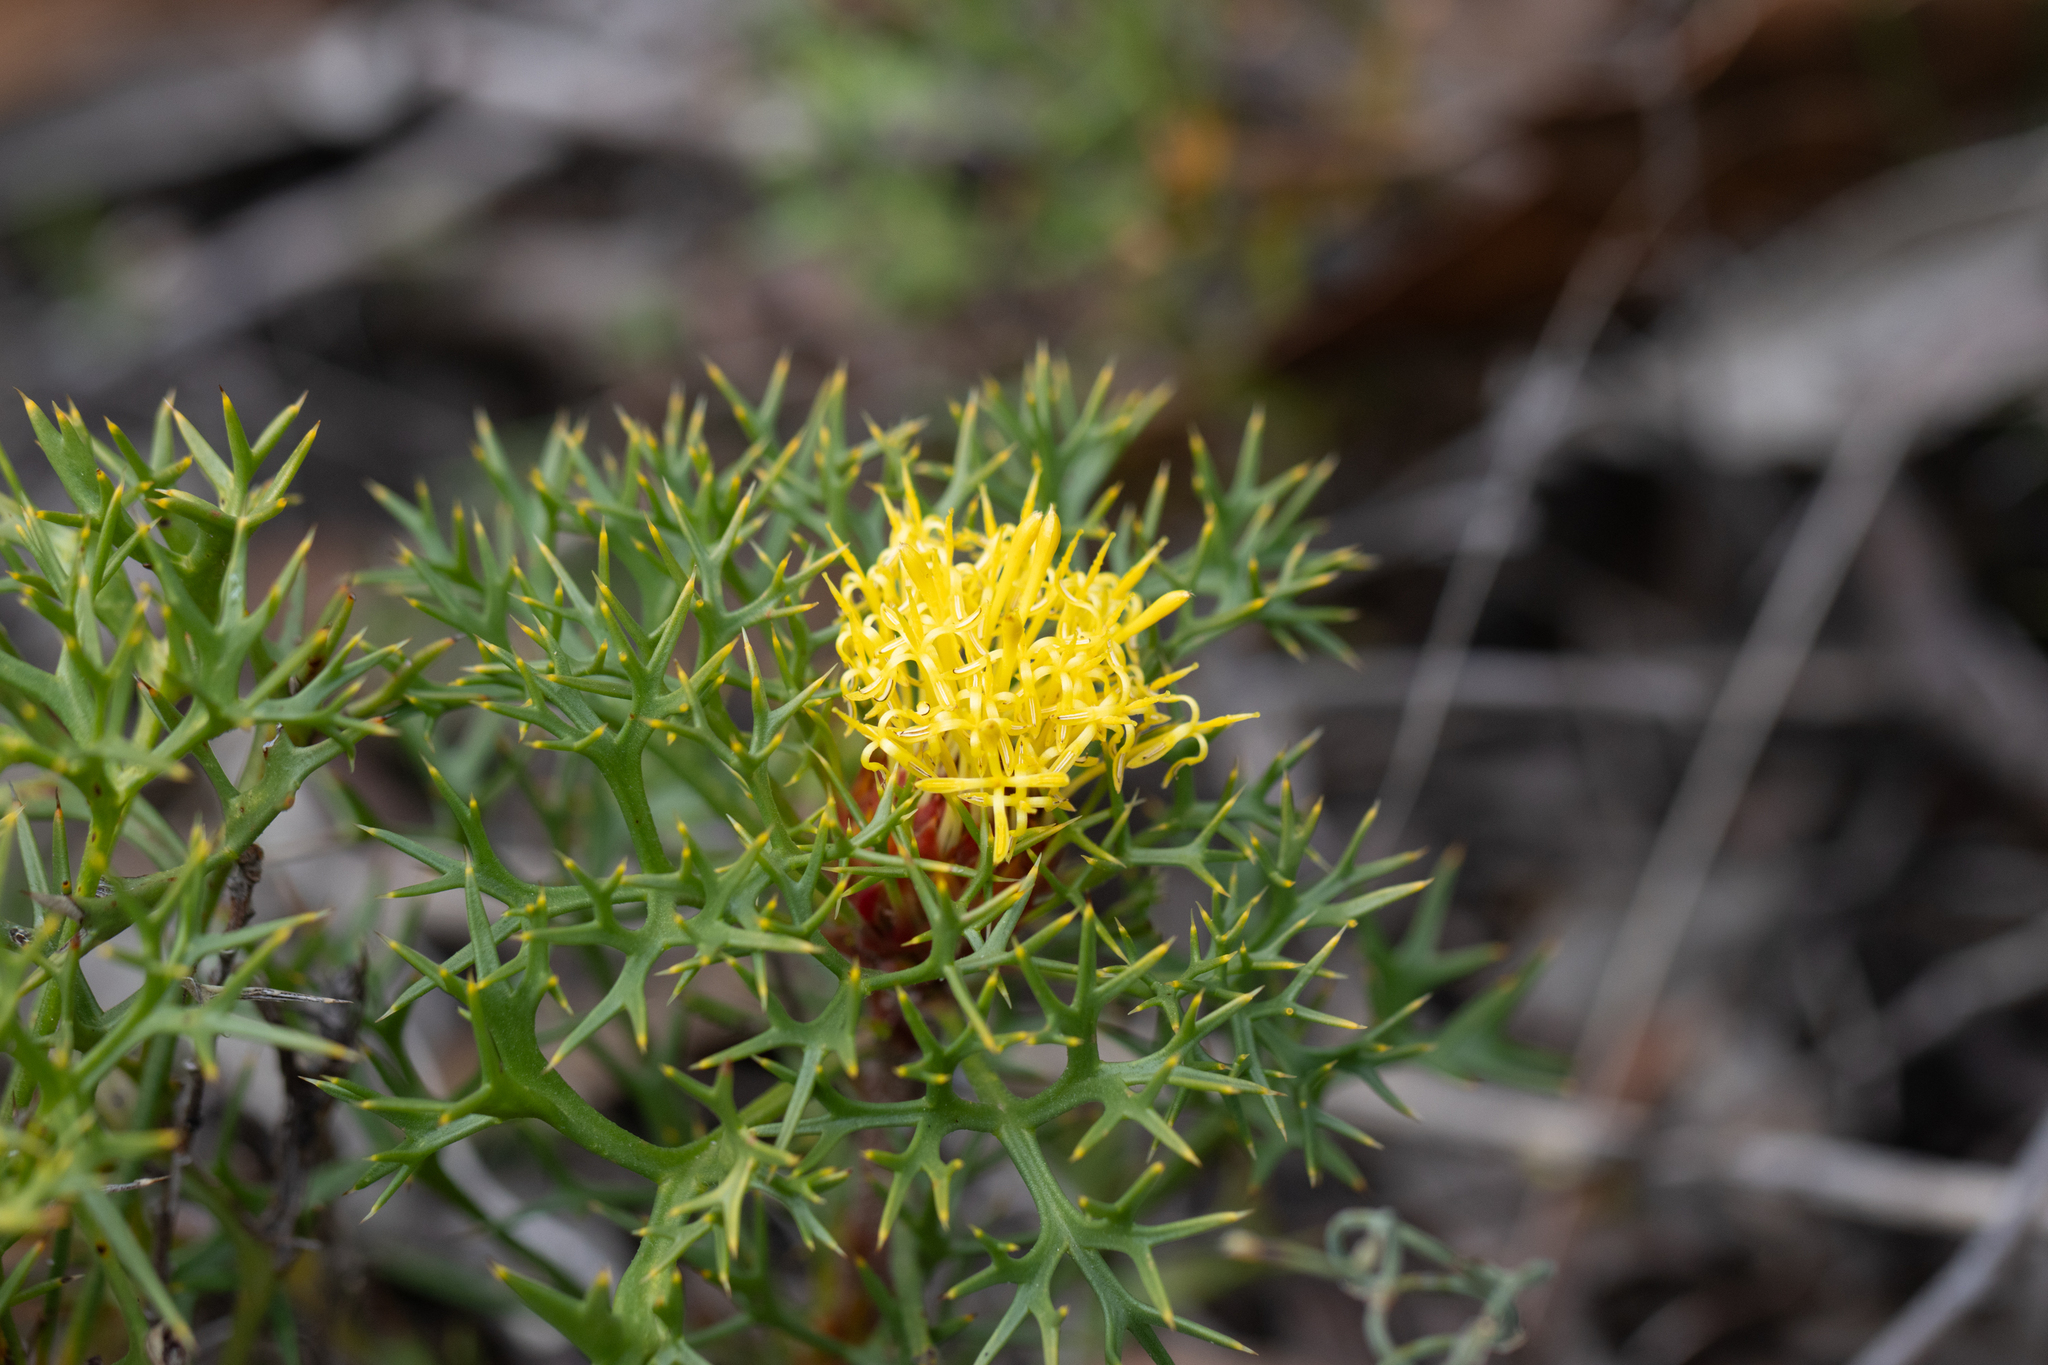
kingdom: Plantae
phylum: Tracheophyta
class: Magnoliopsida
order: Proteales
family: Proteaceae
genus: Isopogon
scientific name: Isopogon ceratophyllus
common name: Horny cone-bush
